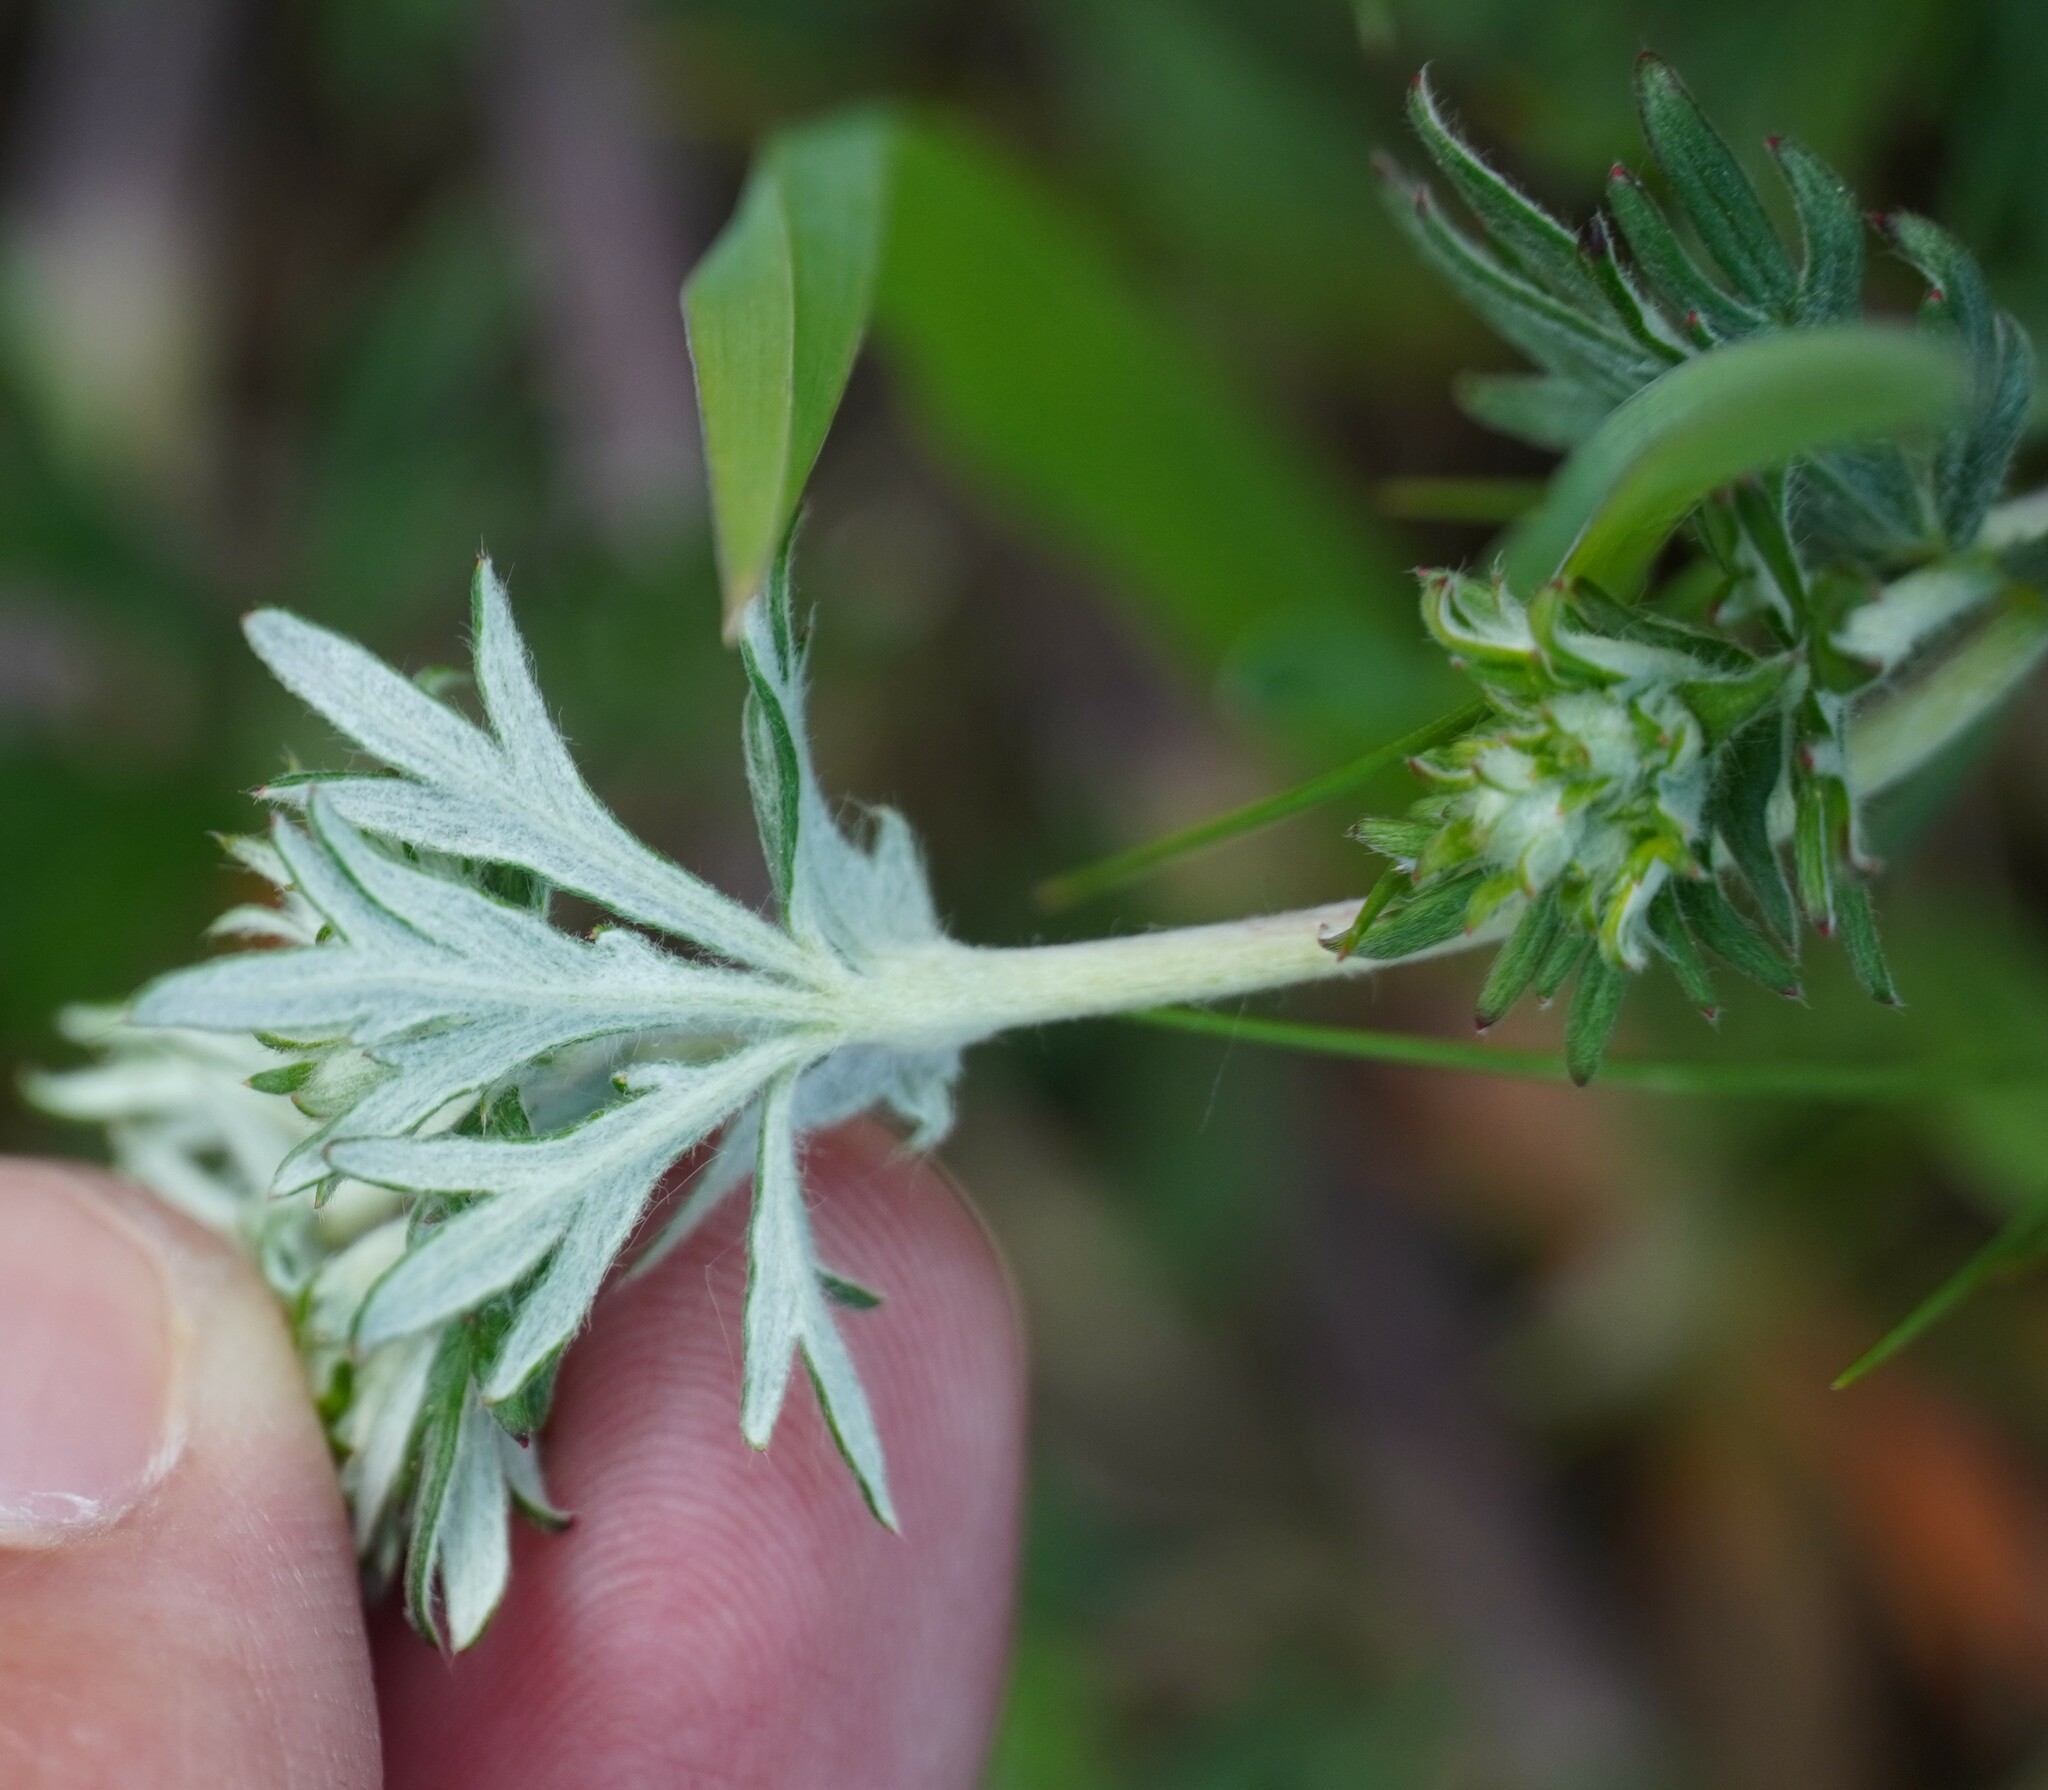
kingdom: Plantae
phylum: Tracheophyta
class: Magnoliopsida
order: Rosales
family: Rosaceae
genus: Potentilla
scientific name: Potentilla argentea
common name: Hoary cinquefoil
